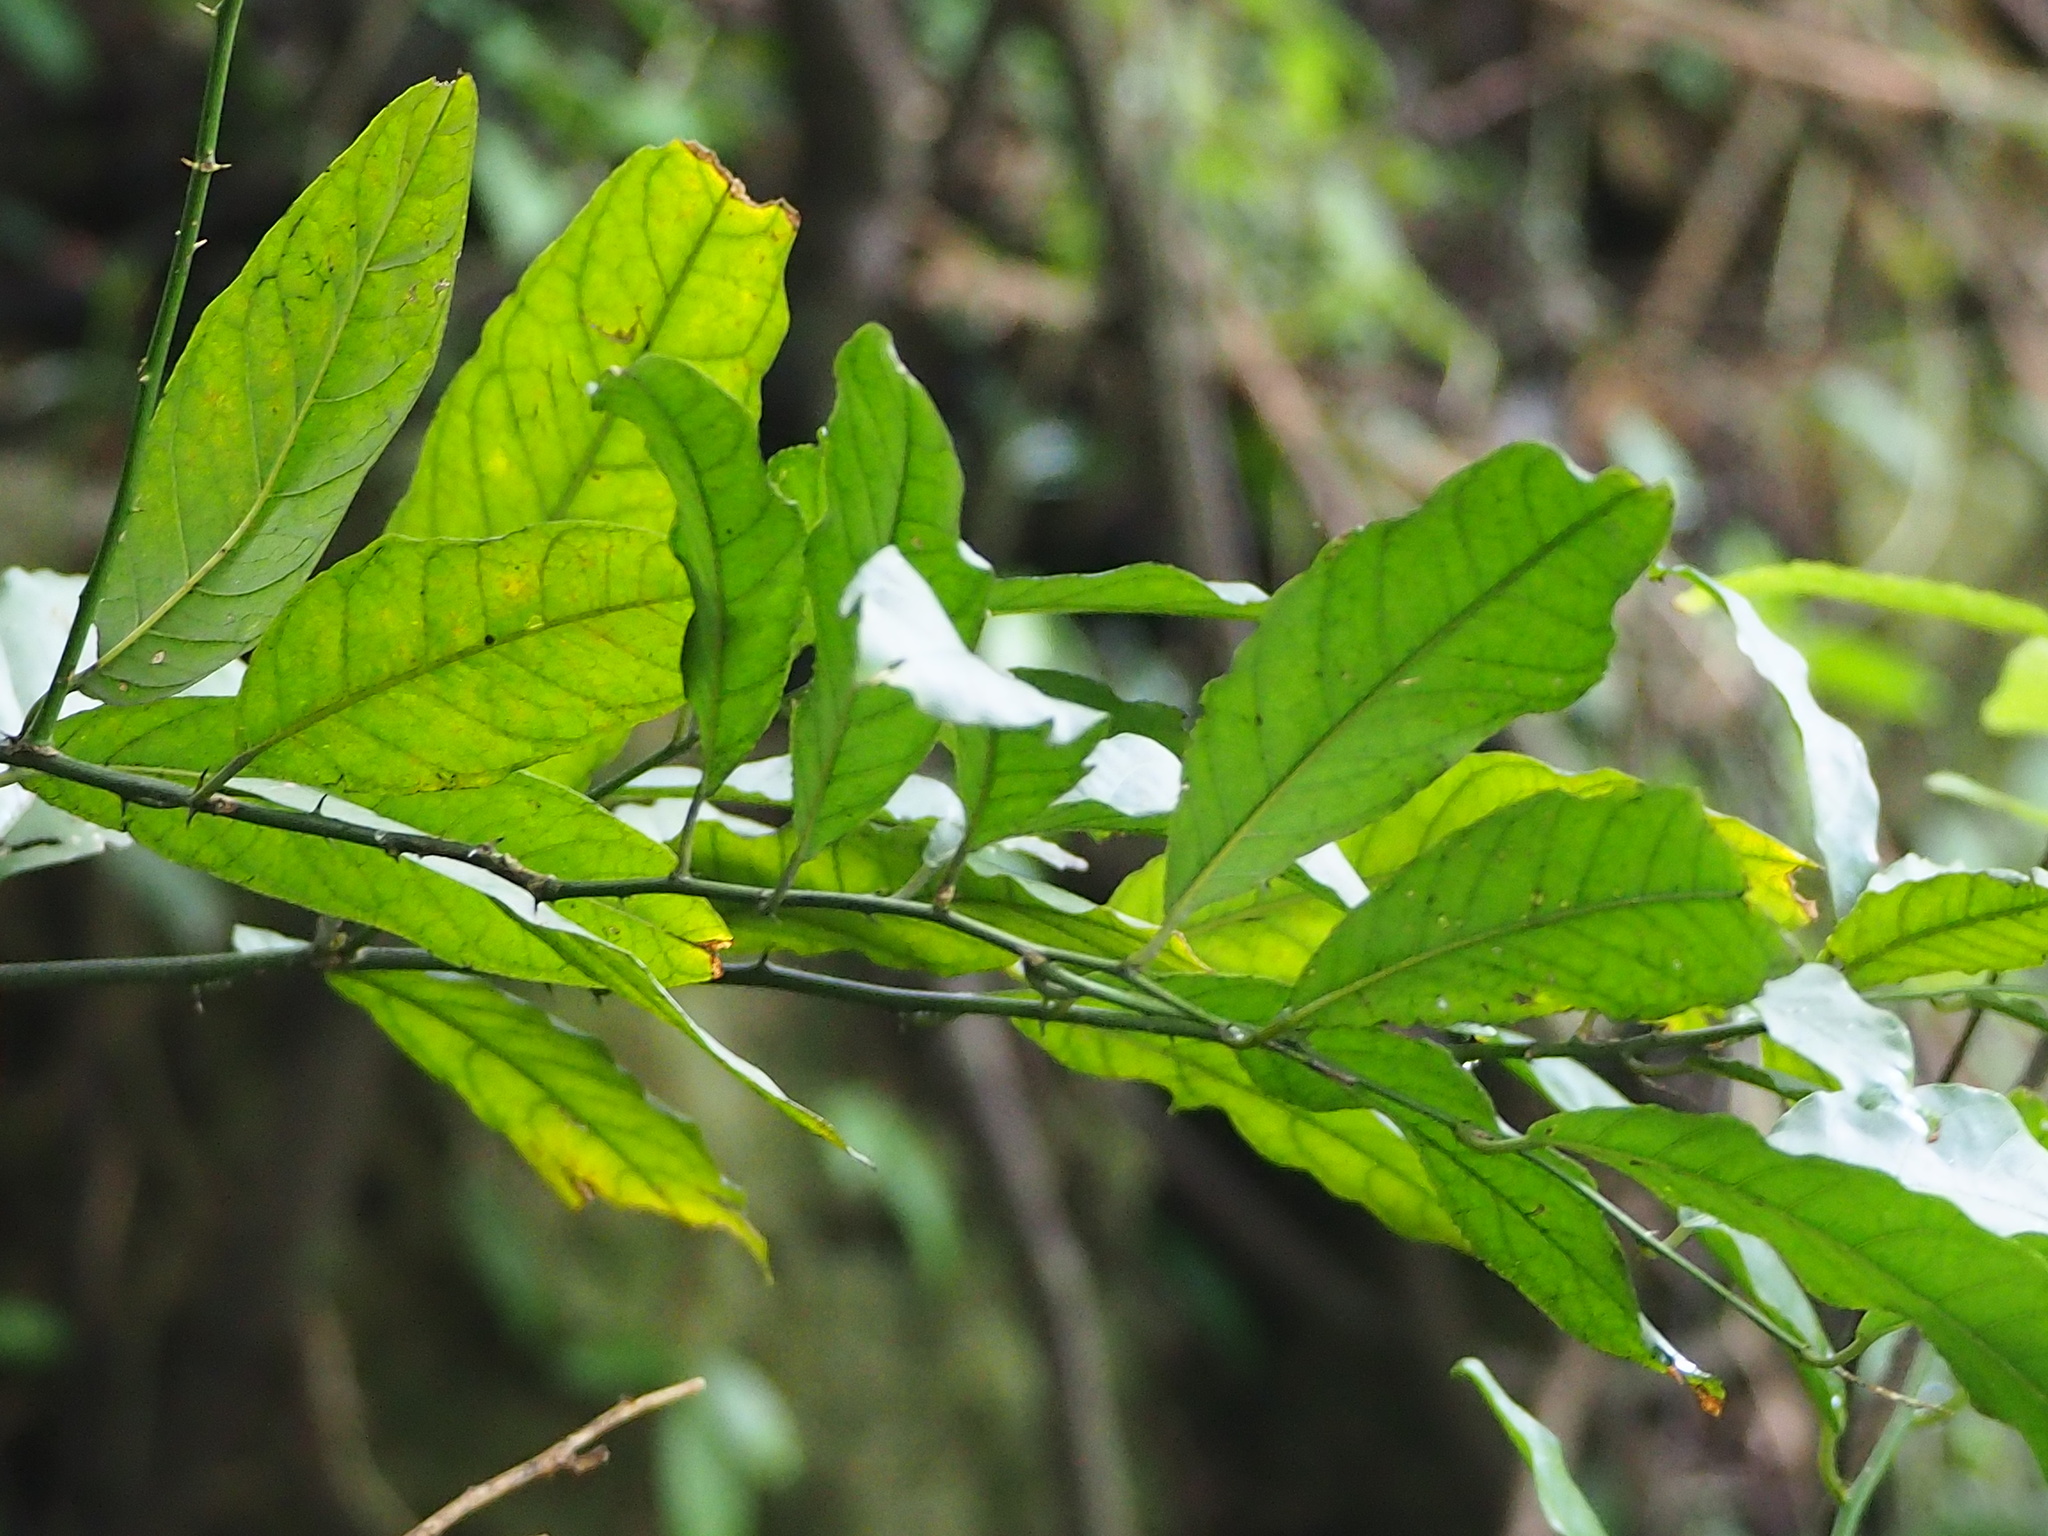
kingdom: Plantae
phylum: Tracheophyta
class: Magnoliopsida
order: Brassicales
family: Capparaceae
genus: Capparis
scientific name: Capparis henryi
